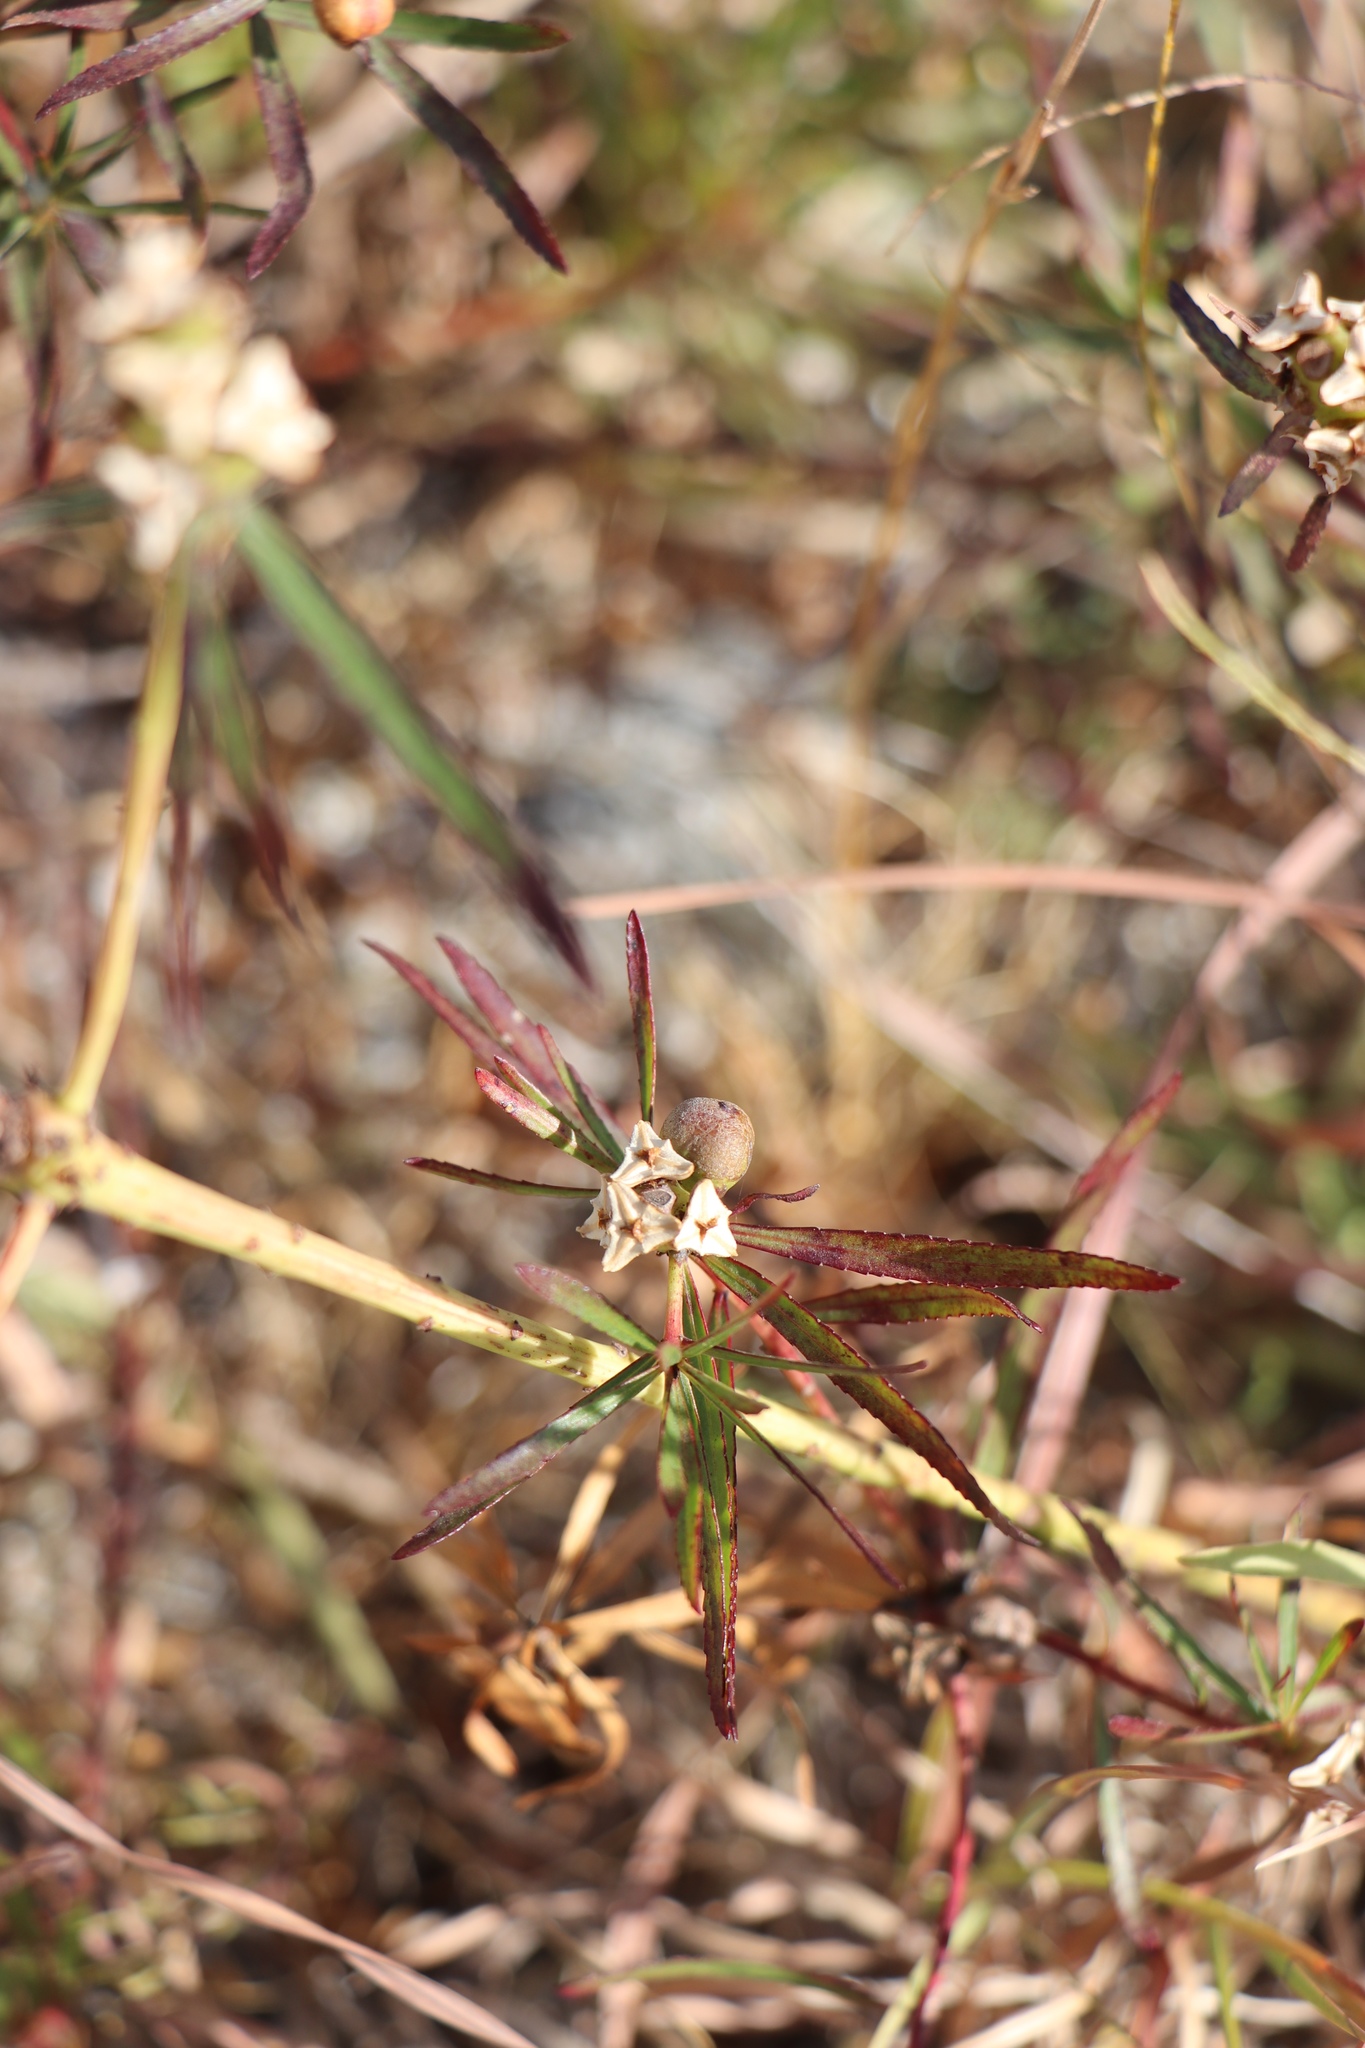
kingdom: Plantae
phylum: Tracheophyta
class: Magnoliopsida
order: Malpighiales
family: Euphorbiaceae
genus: Stillingia
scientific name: Stillingia texana
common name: Texas stillingia
